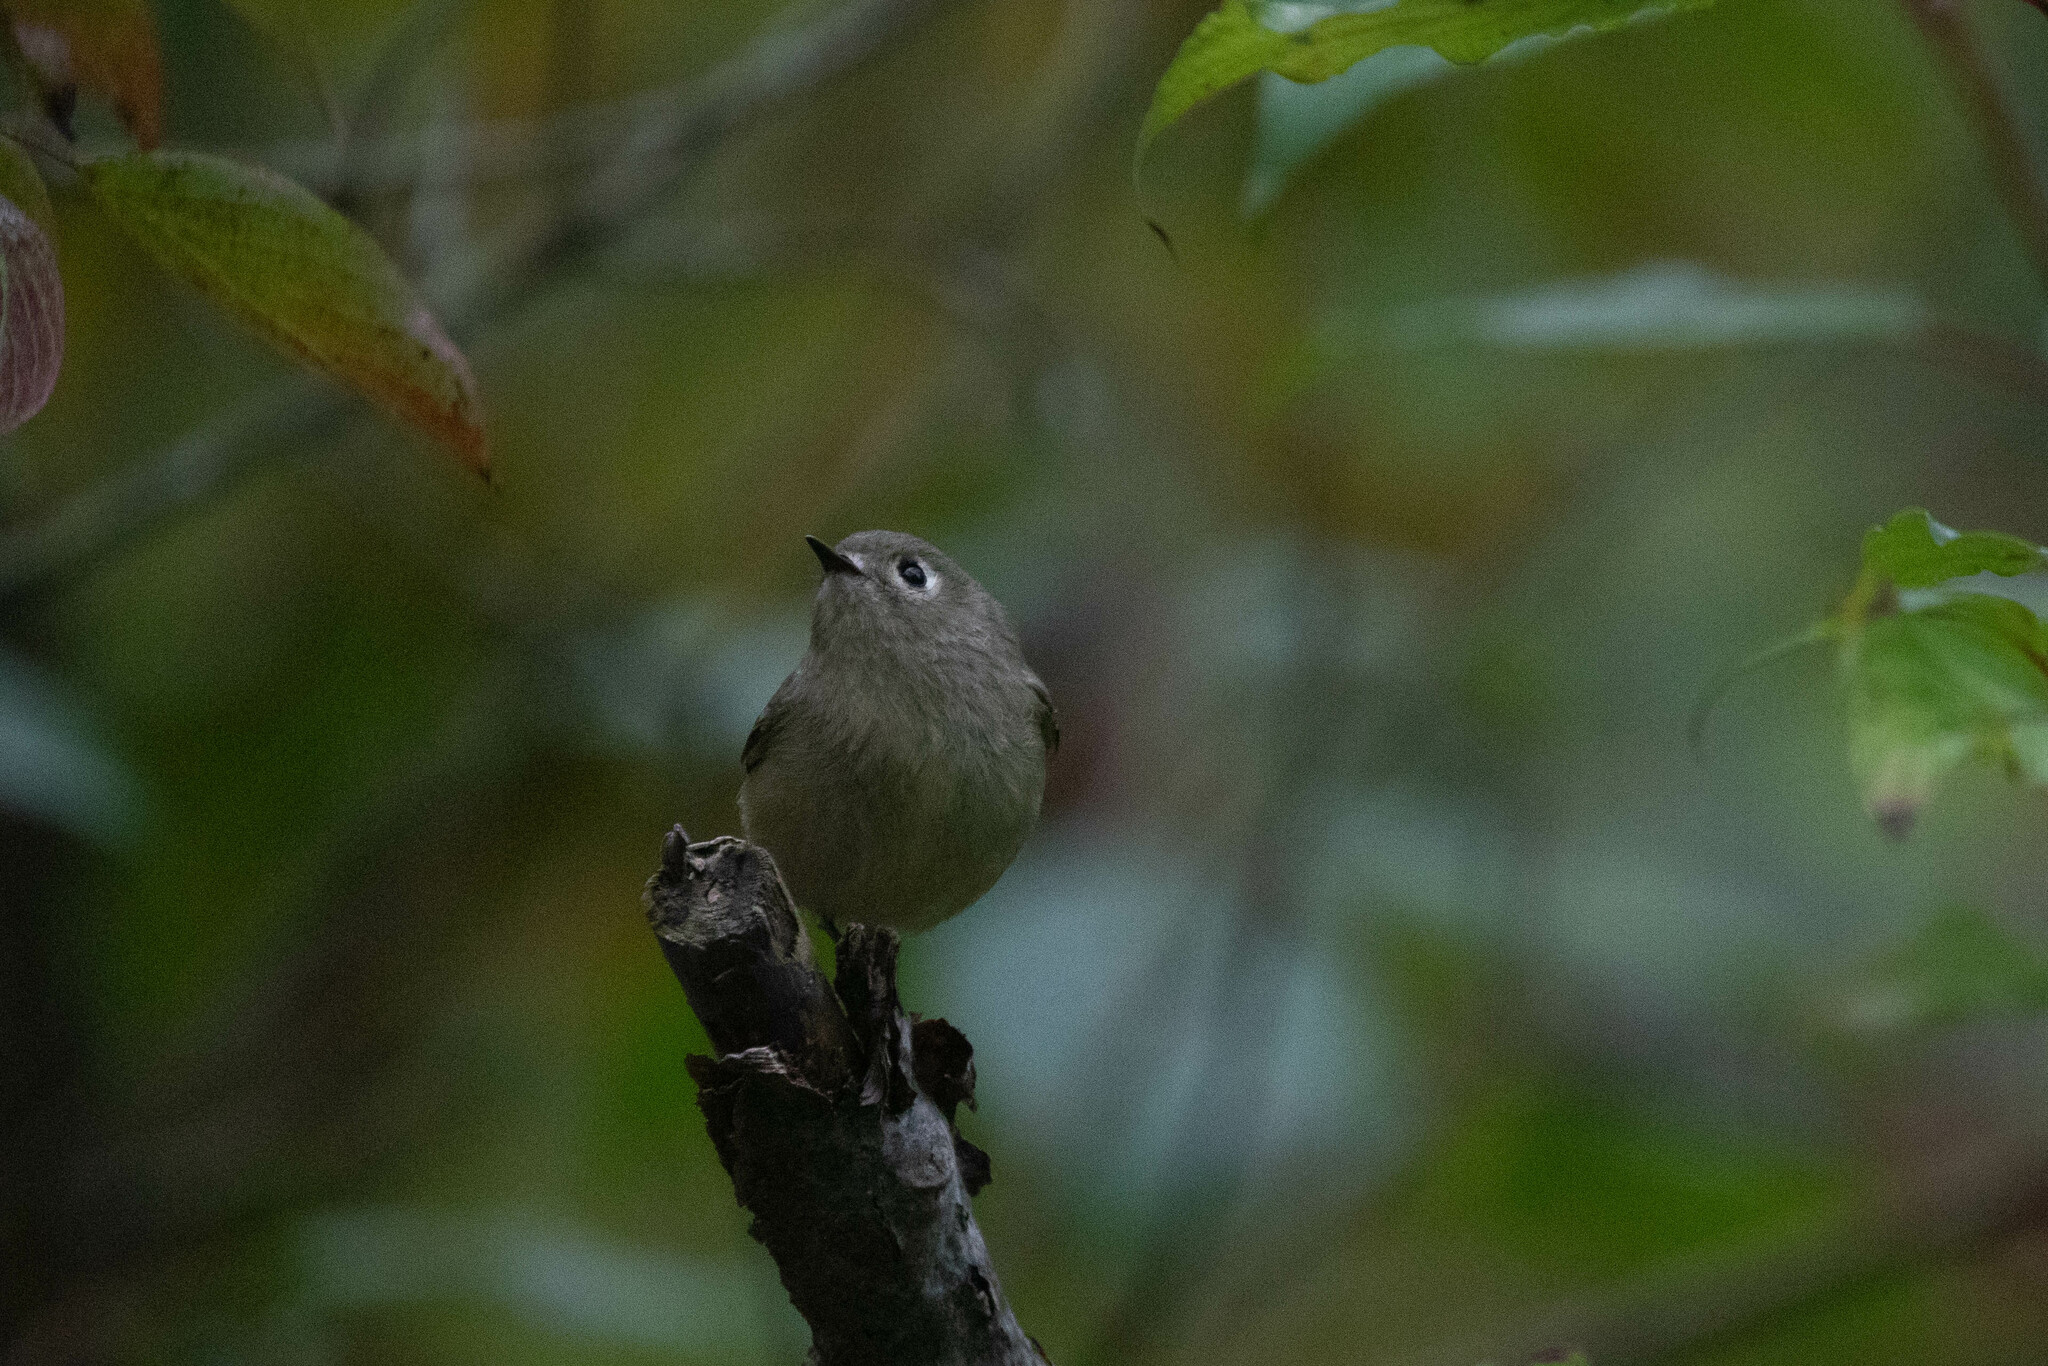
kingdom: Animalia
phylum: Chordata
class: Aves
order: Passeriformes
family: Regulidae
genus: Regulus
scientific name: Regulus calendula
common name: Ruby-crowned kinglet
